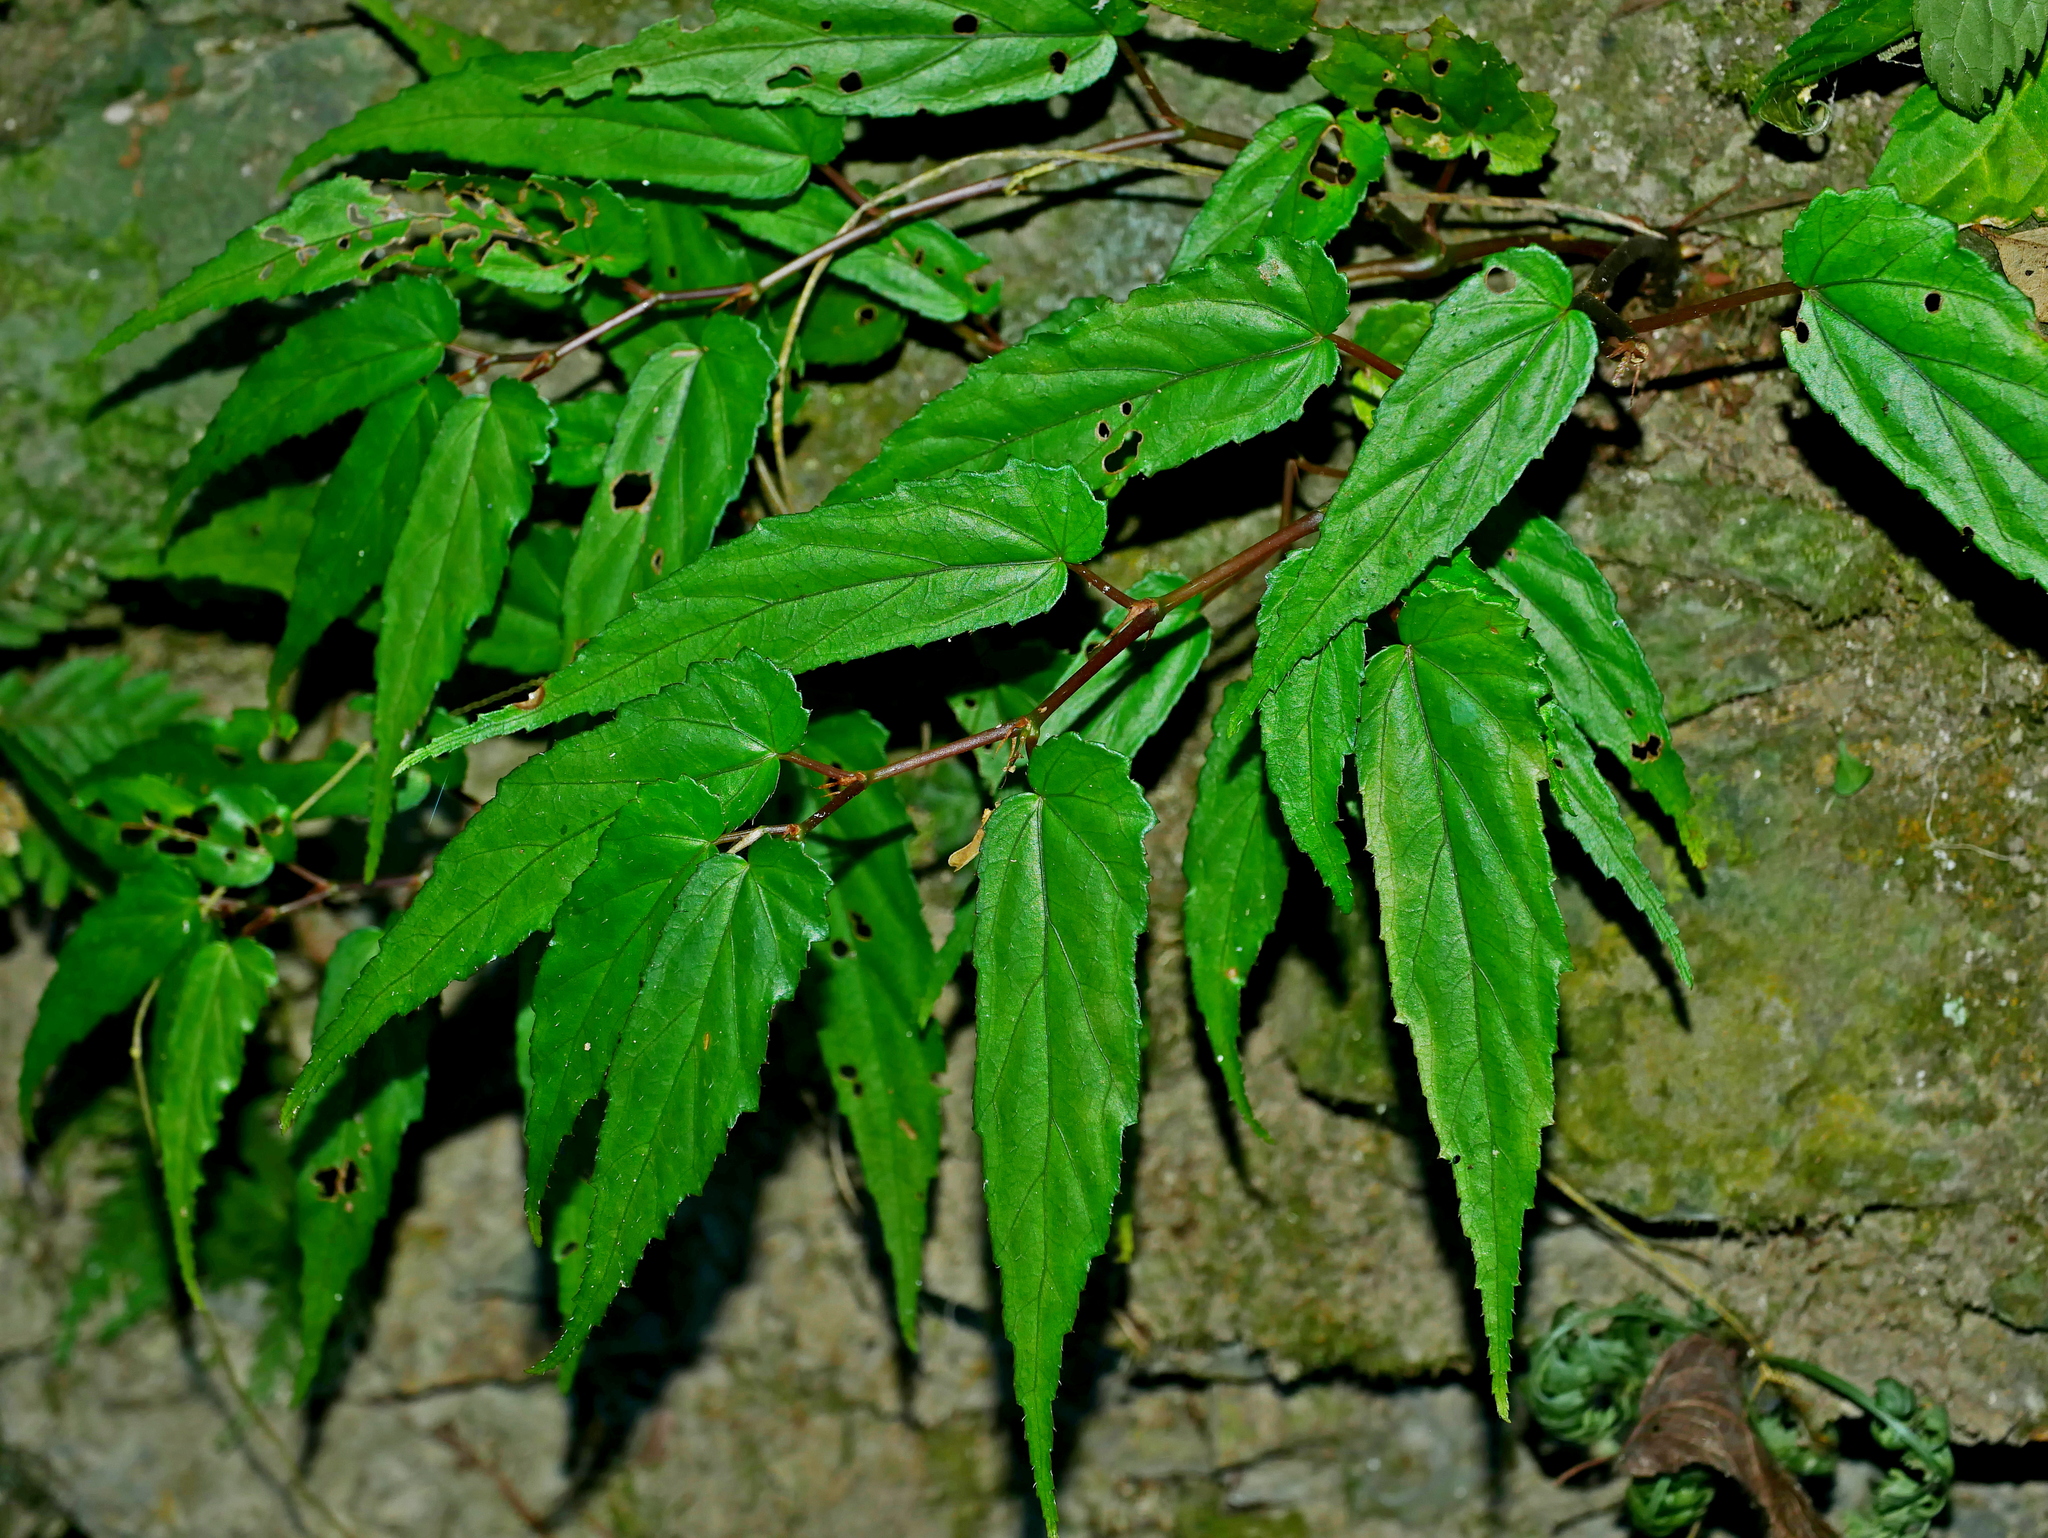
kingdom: Plantae
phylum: Tracheophyta
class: Magnoliopsida
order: Cucurbitales
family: Begoniaceae
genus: Begonia
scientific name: Begonia taiwaniana
